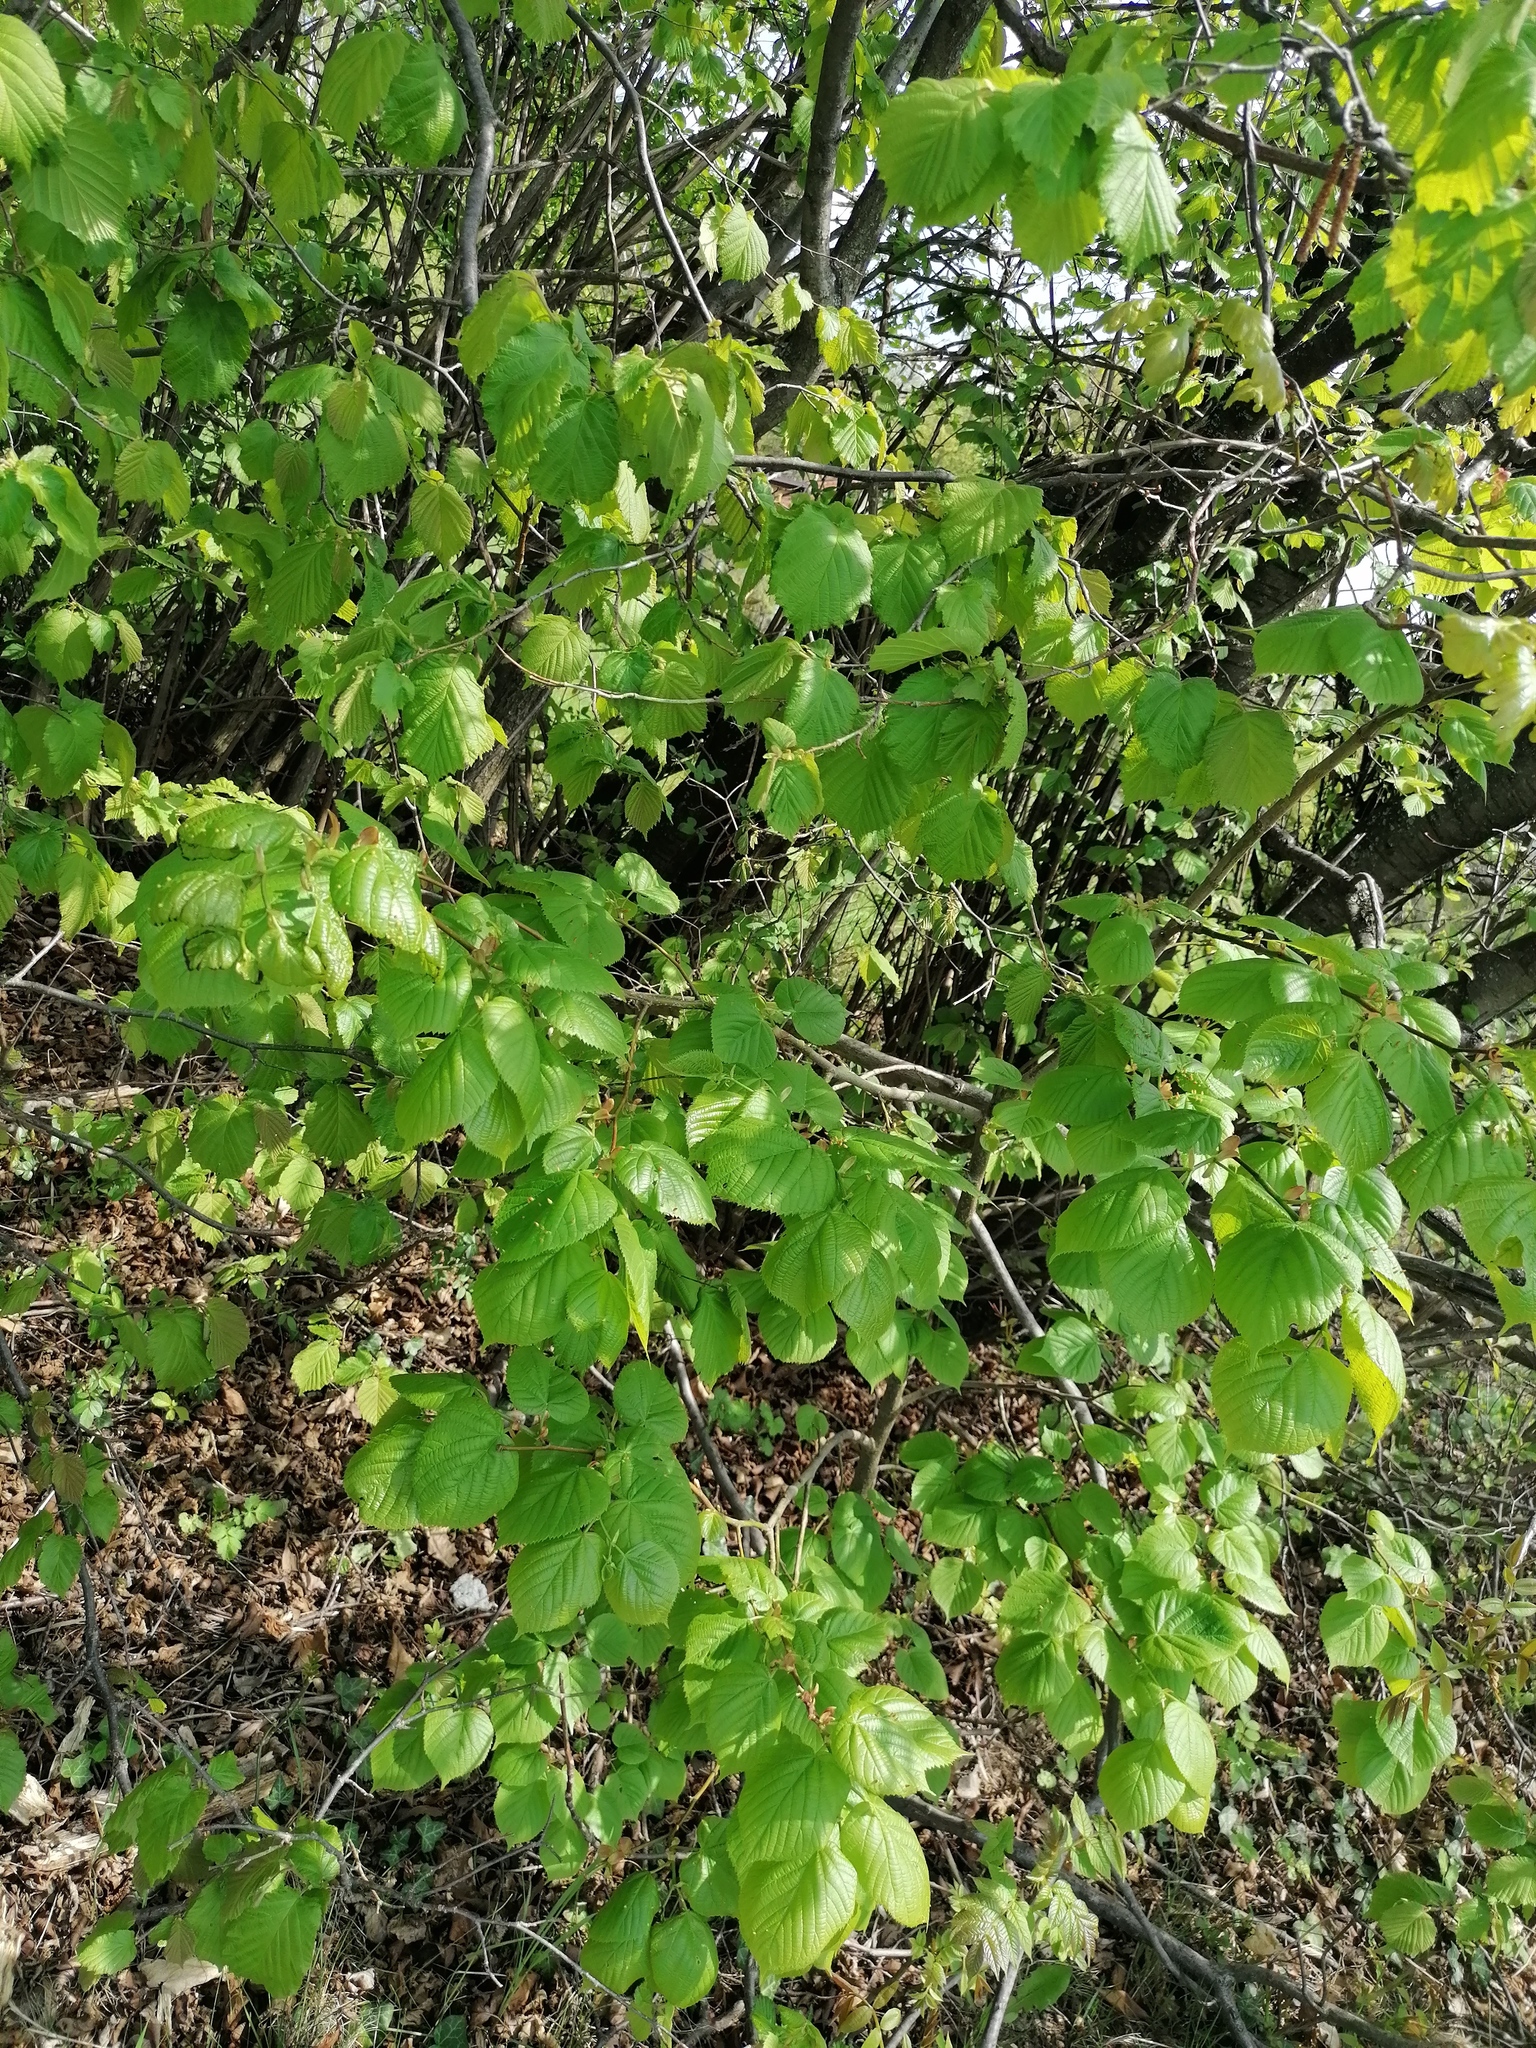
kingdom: Animalia
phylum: Arthropoda
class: Arachnida
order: Trombidiformes
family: Eriophyidae
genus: Eriophyes
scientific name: Eriophyes tiliae
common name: Red nail gall mite
